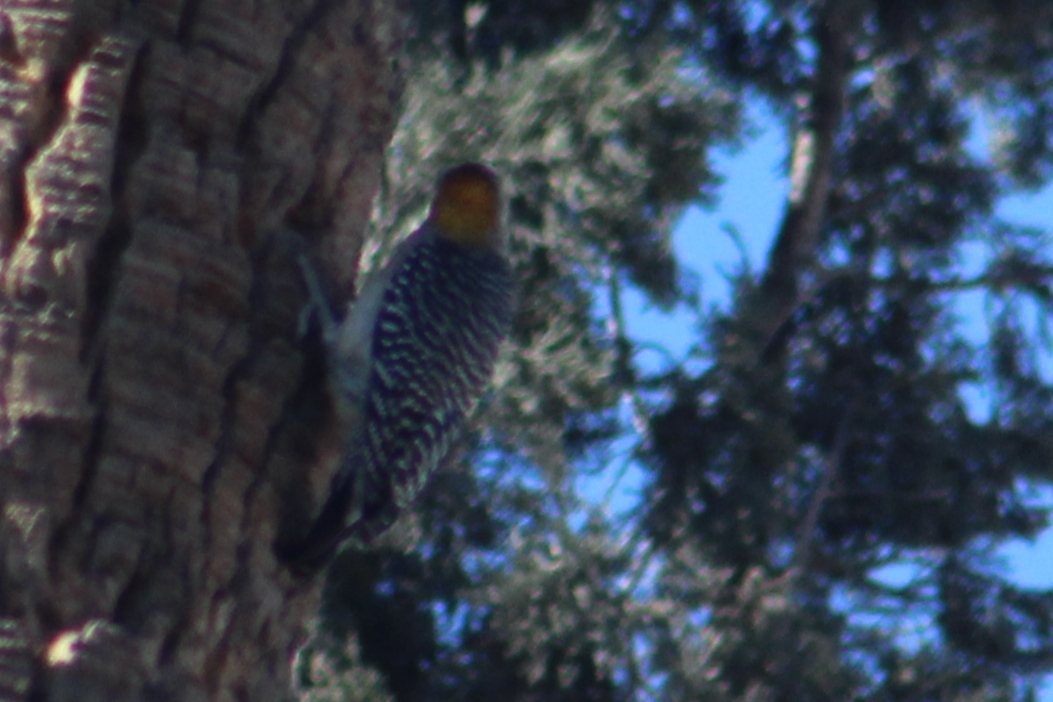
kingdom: Animalia
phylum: Chordata
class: Aves
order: Piciformes
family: Picidae
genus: Melanerpes
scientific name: Melanerpes aurifrons
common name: Golden-fronted woodpecker
